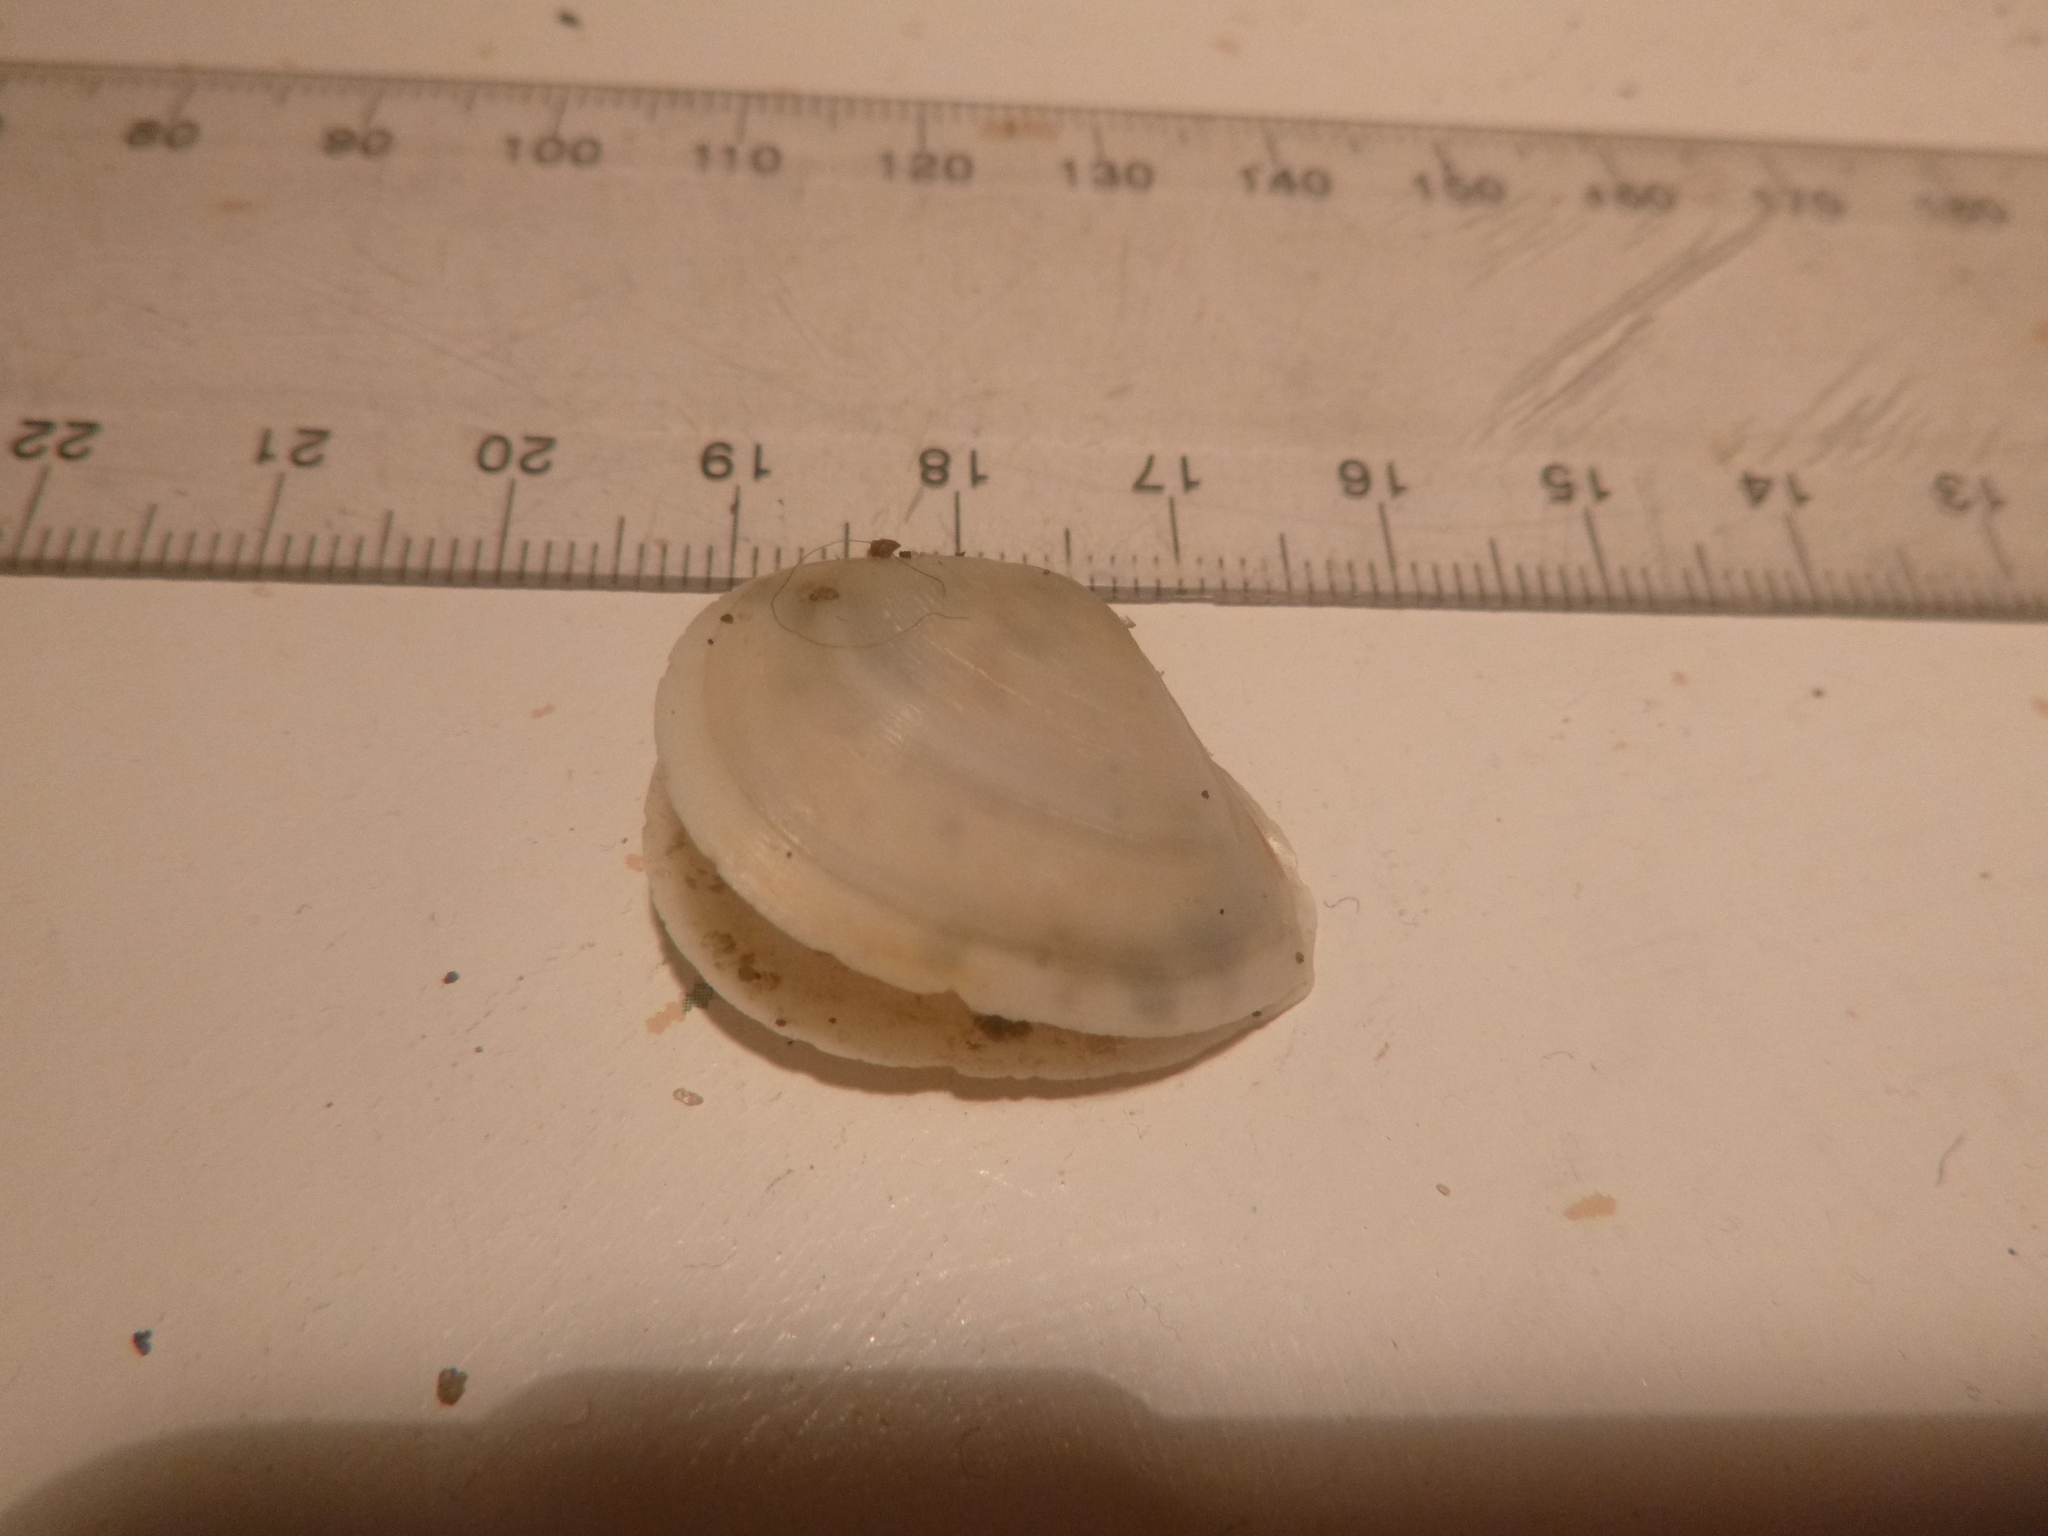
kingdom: Animalia
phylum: Mollusca
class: Bivalvia
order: Cardiida
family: Tellinidae
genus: Macomona
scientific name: Macomona liliana
